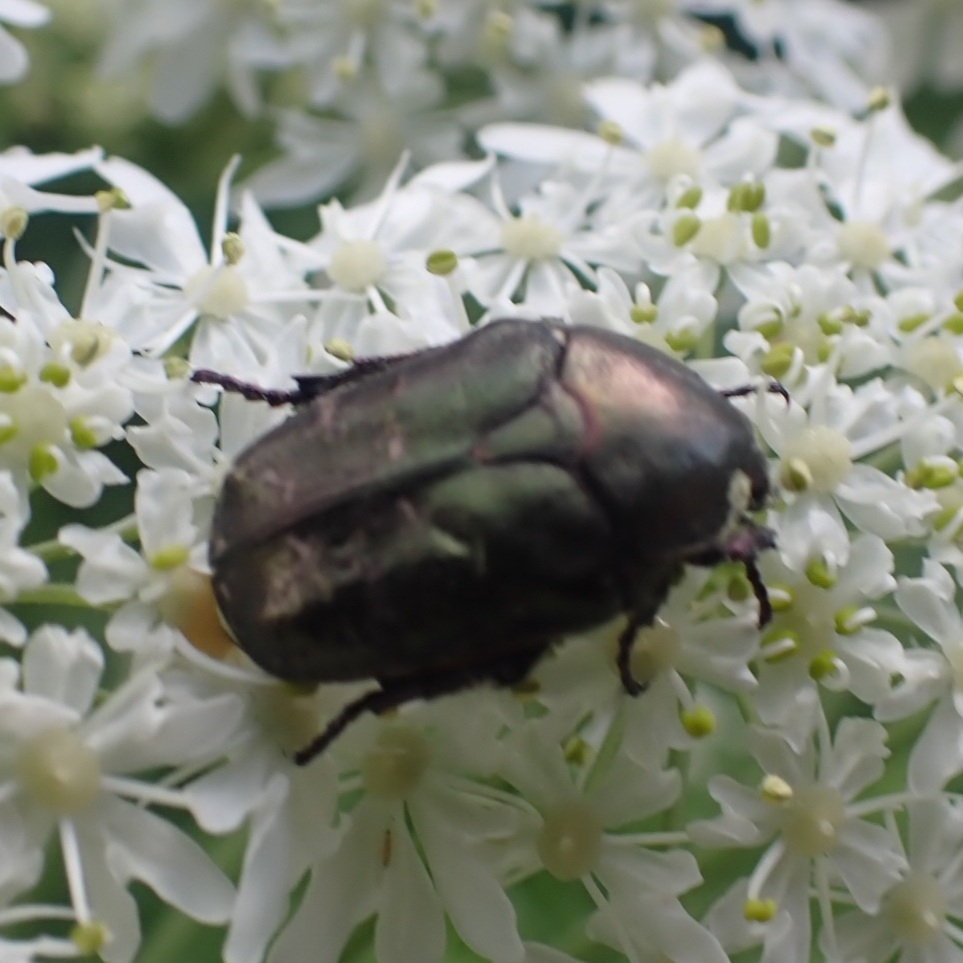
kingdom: Animalia
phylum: Arthropoda
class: Insecta
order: Coleoptera
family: Scarabaeidae
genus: Protaetia
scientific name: Protaetia cuprea
